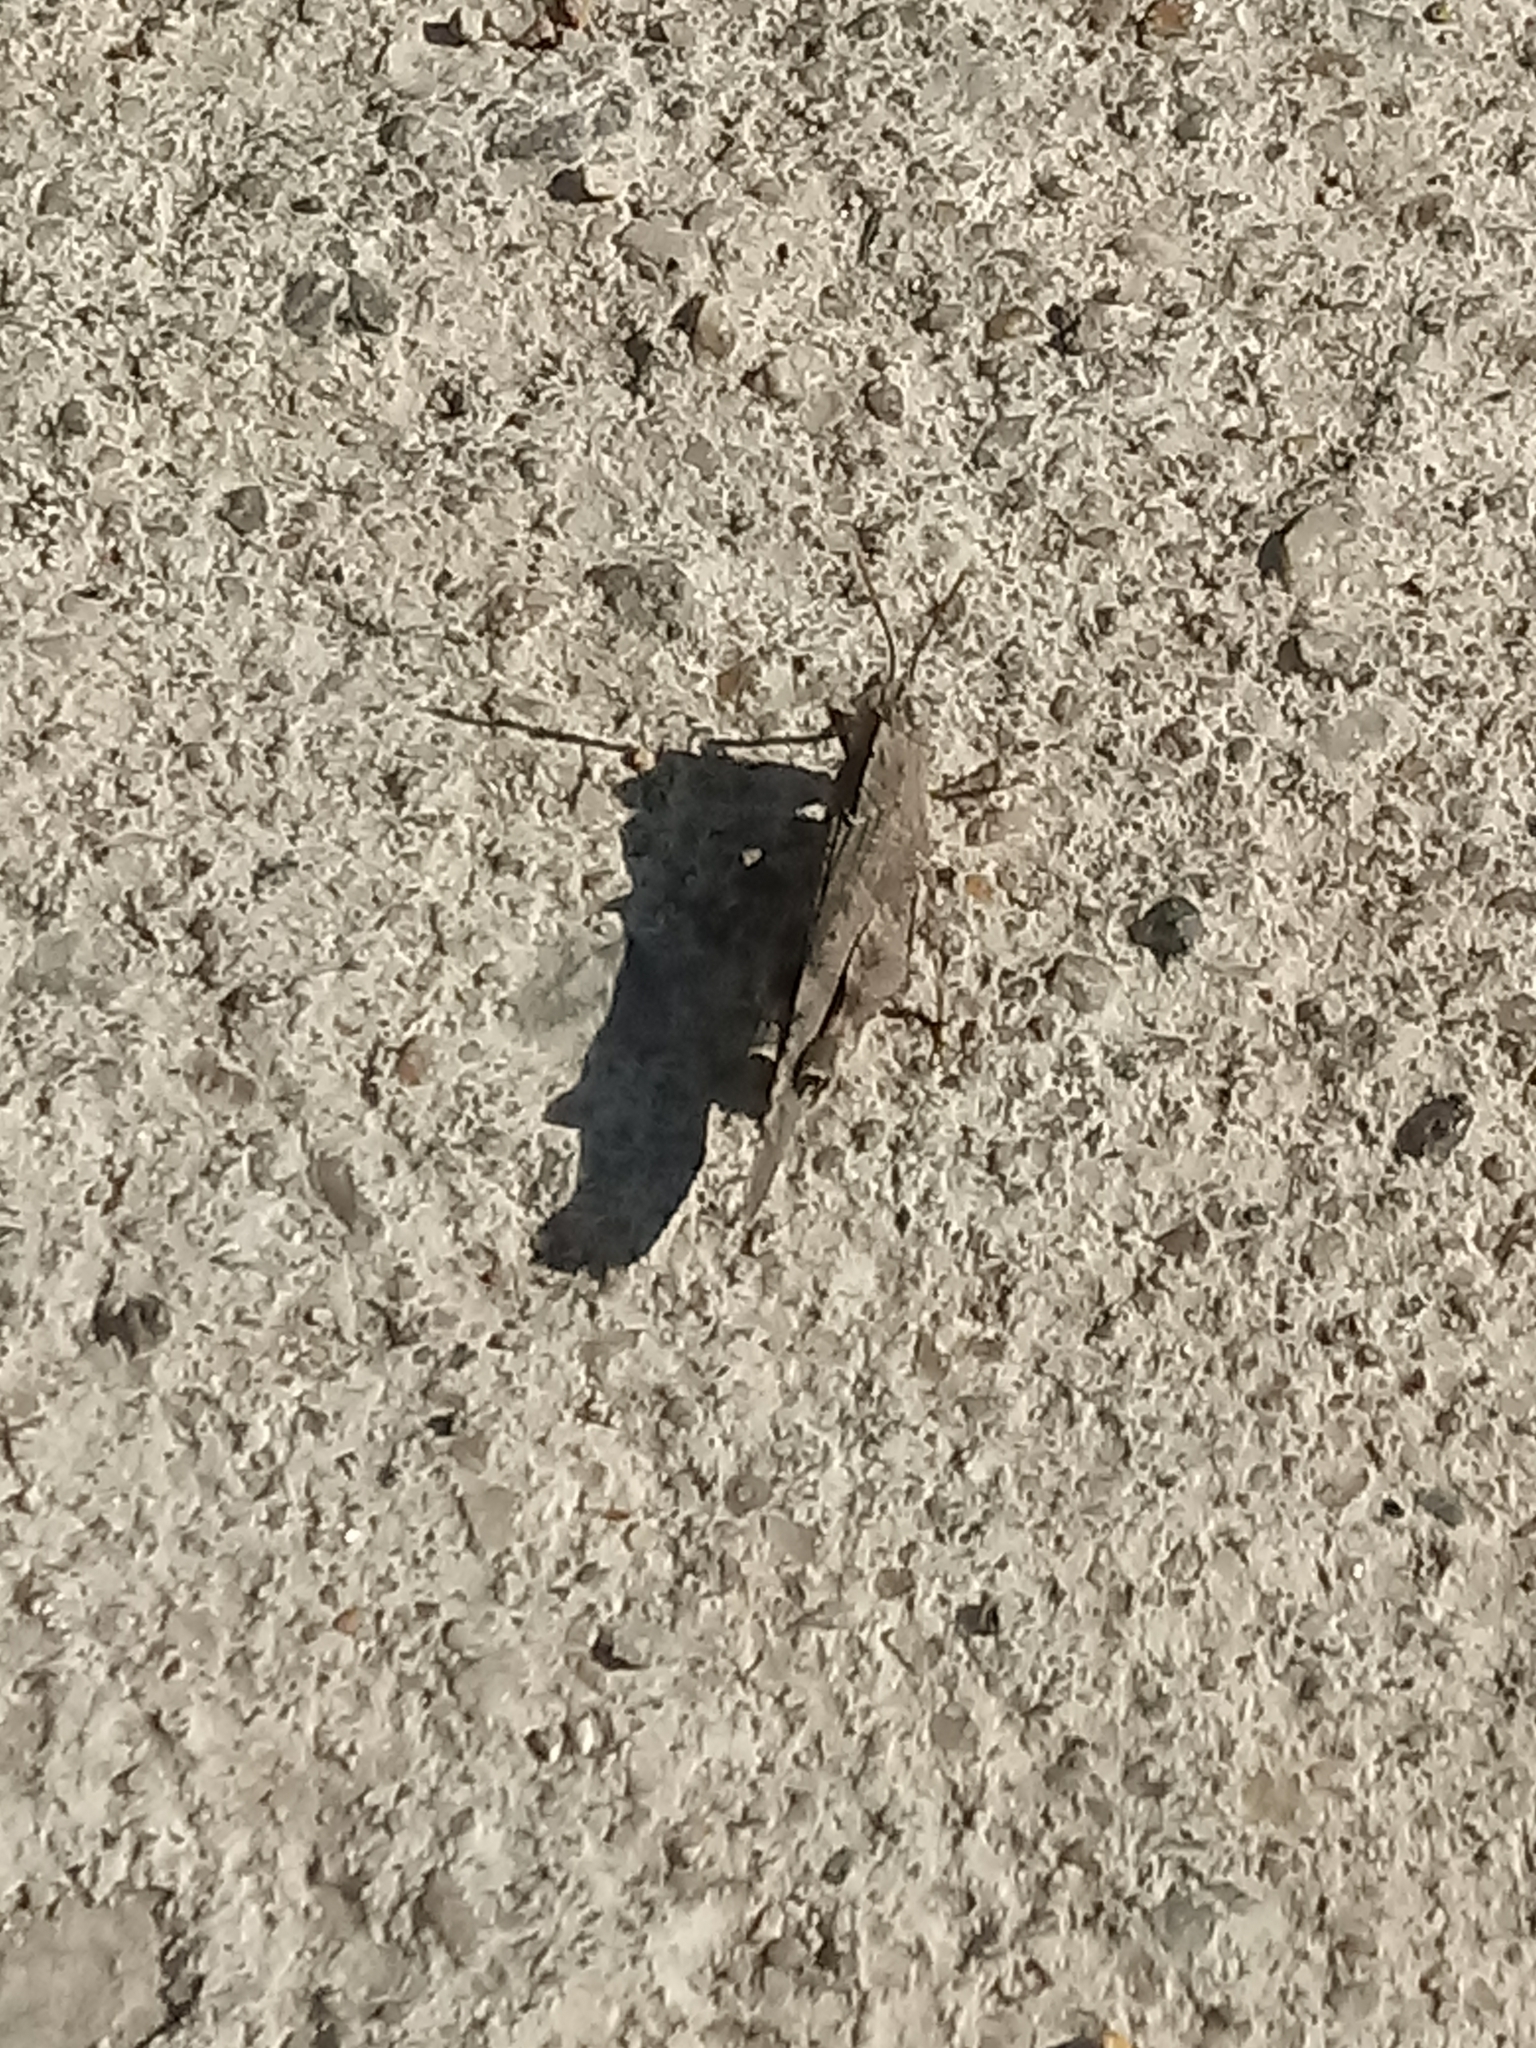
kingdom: Animalia
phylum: Arthropoda
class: Insecta
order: Orthoptera
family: Acrididae
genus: Lactista
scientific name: Lactista gibbosus
